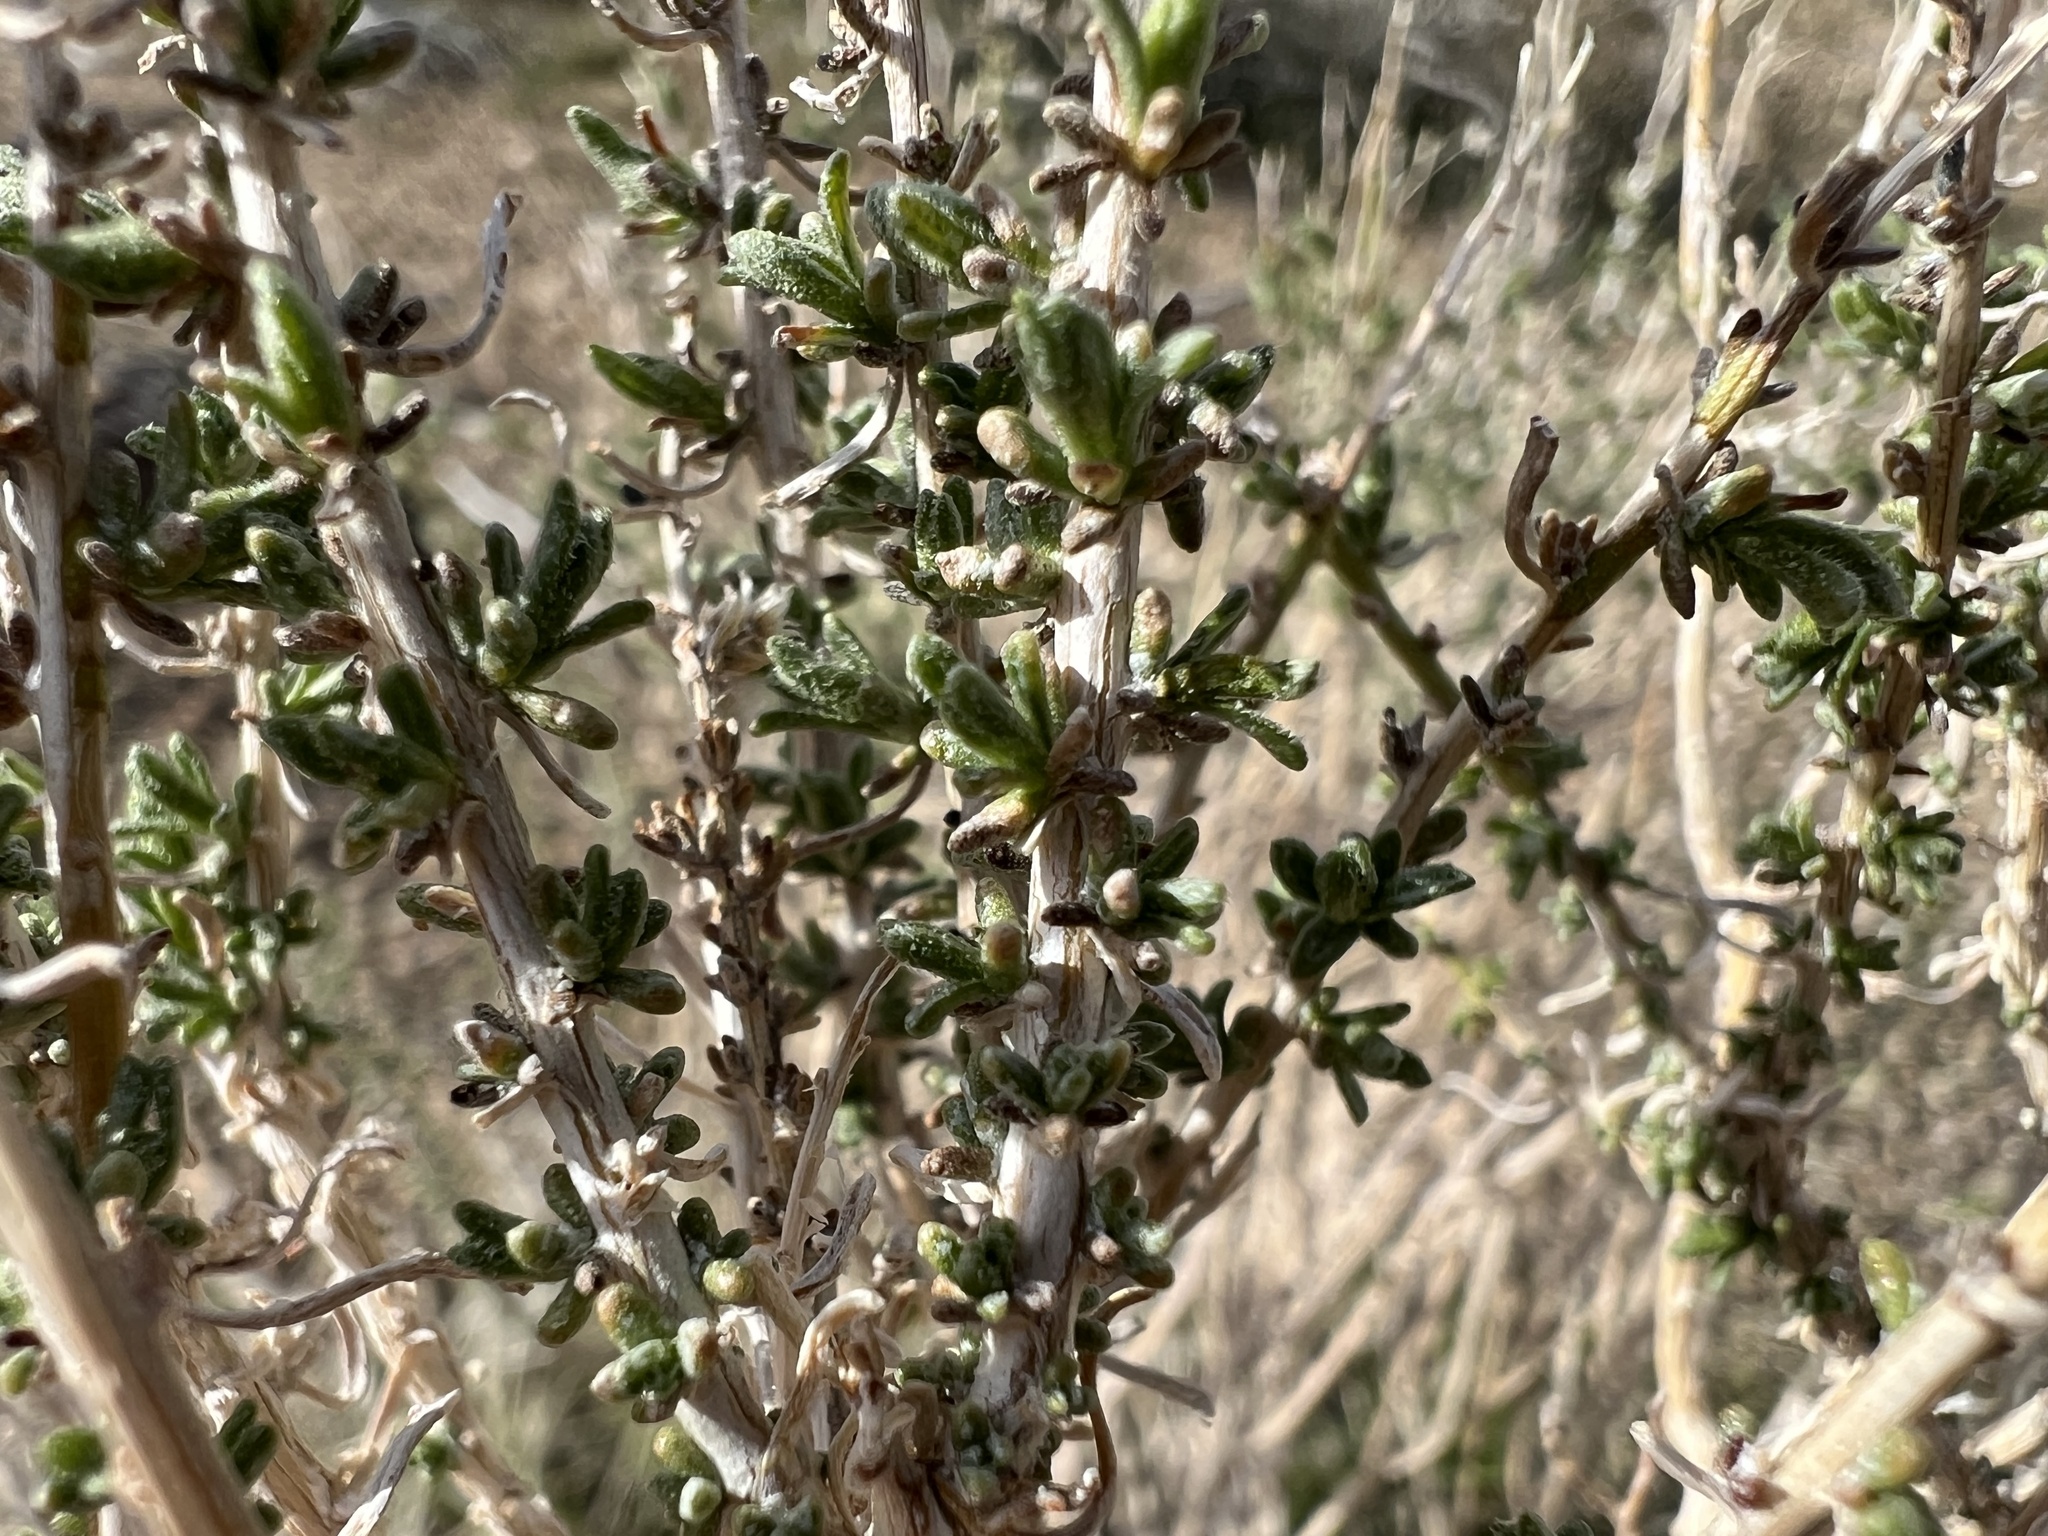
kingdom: Plantae
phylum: Tracheophyta
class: Magnoliopsida
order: Asterales
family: Asteraceae
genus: Ericameria
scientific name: Ericameria cooperi
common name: Cooper's goldenbush
